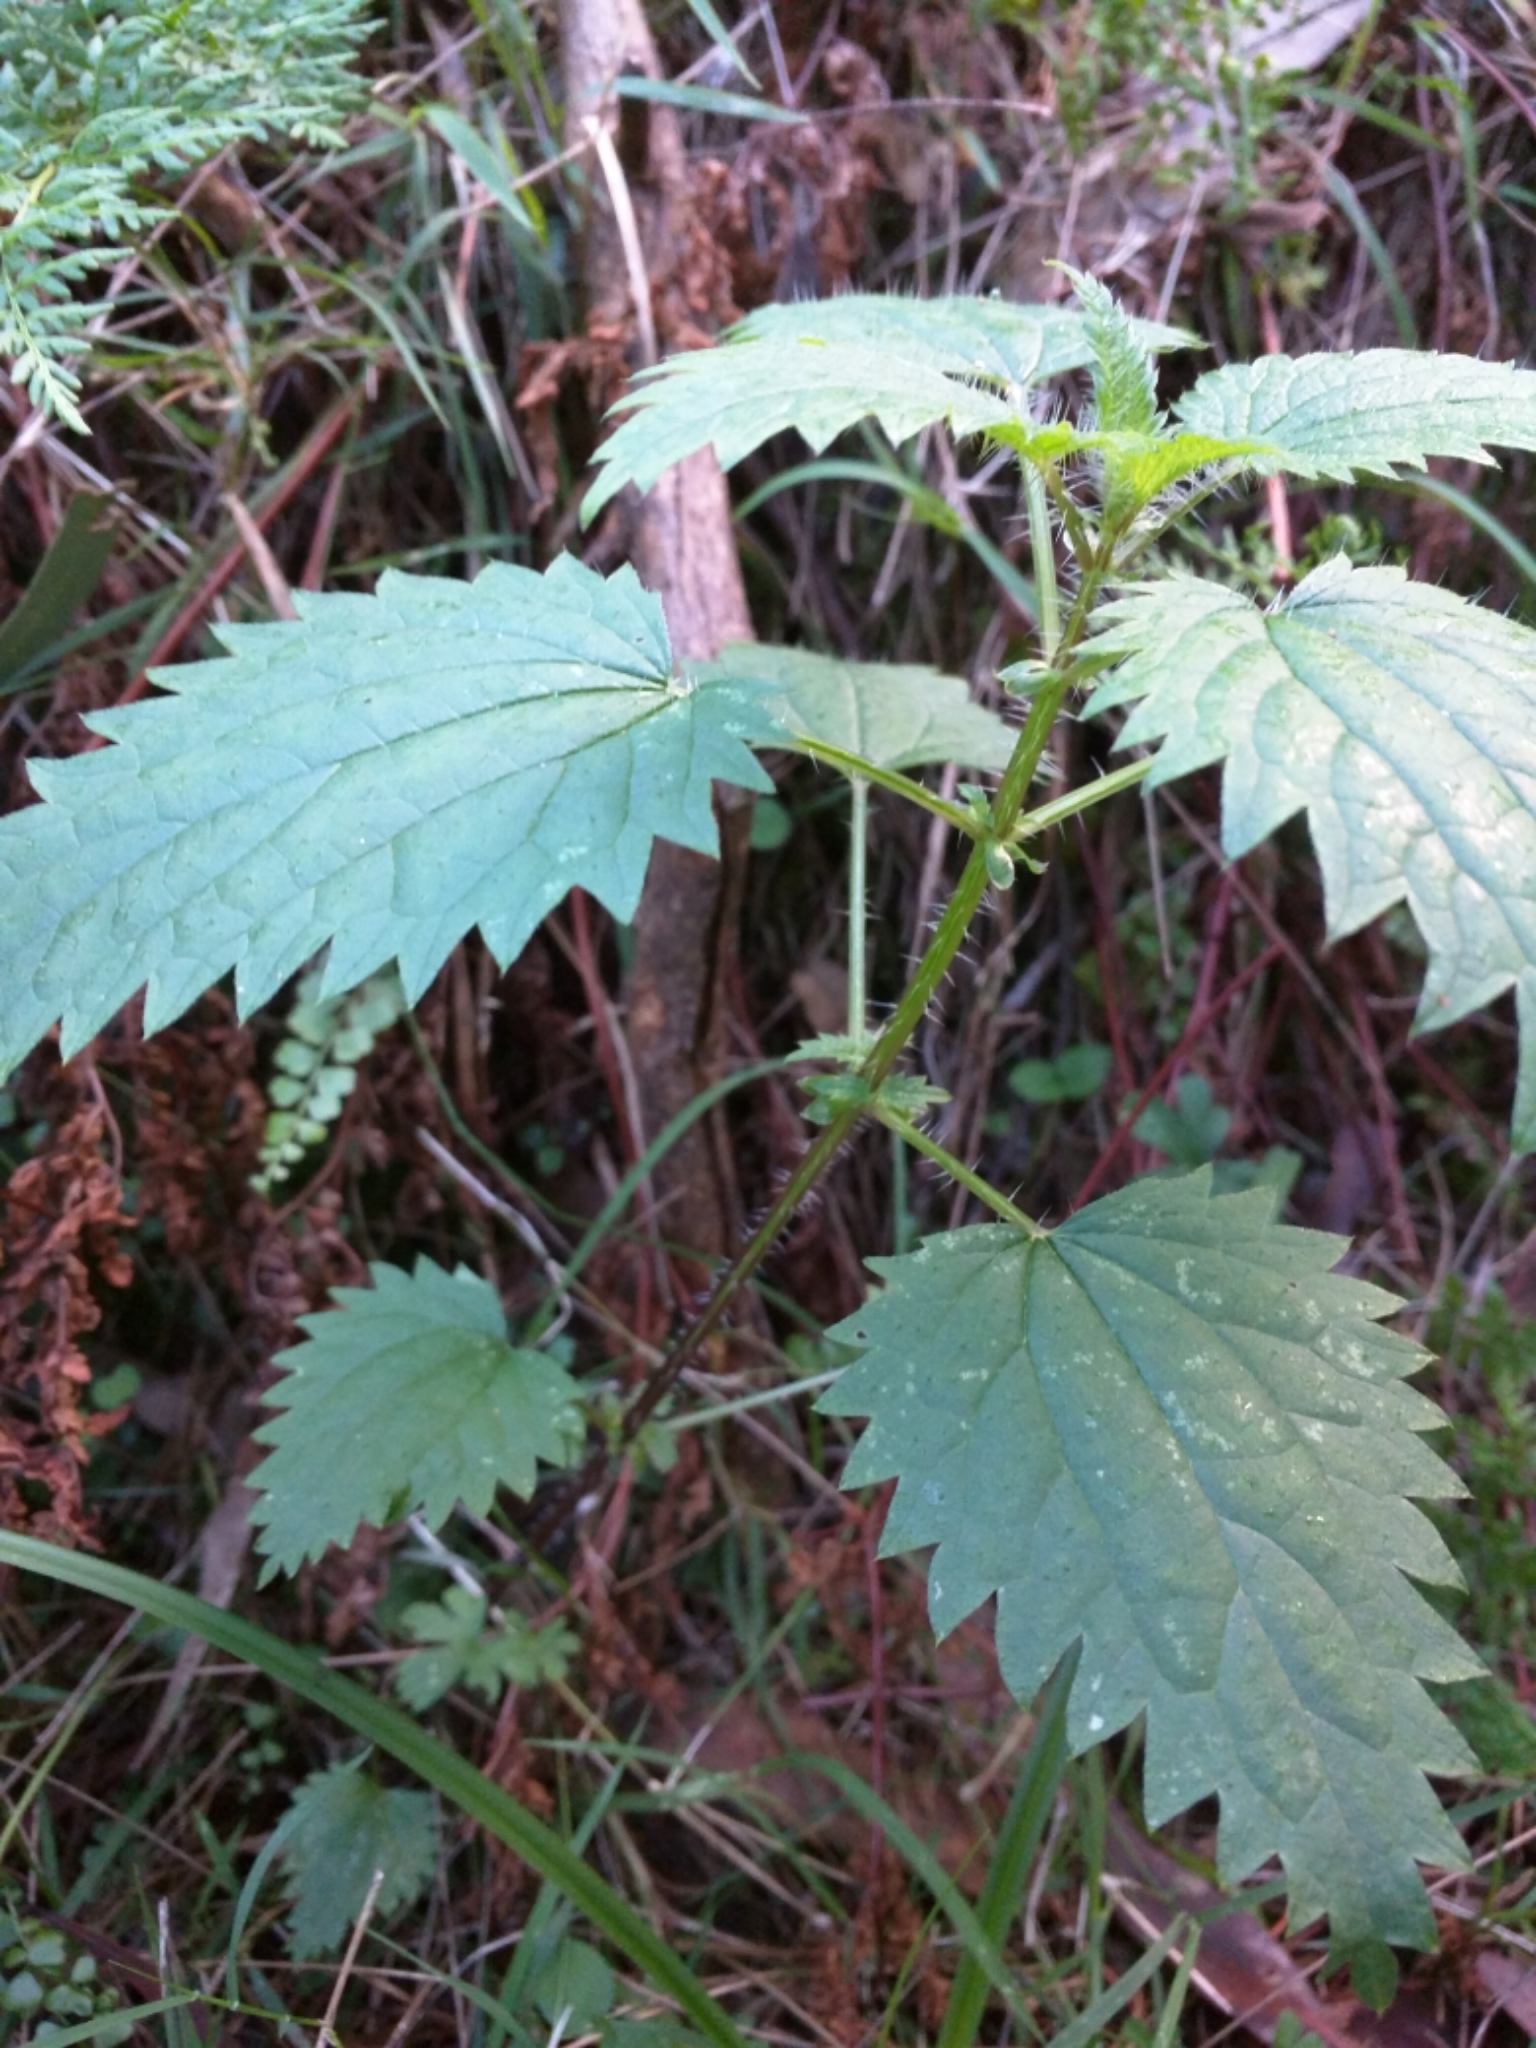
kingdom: Plantae
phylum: Tracheophyta
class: Magnoliopsida
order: Rosales
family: Urticaceae
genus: Urtica
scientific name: Urtica dioica
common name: Common nettle
